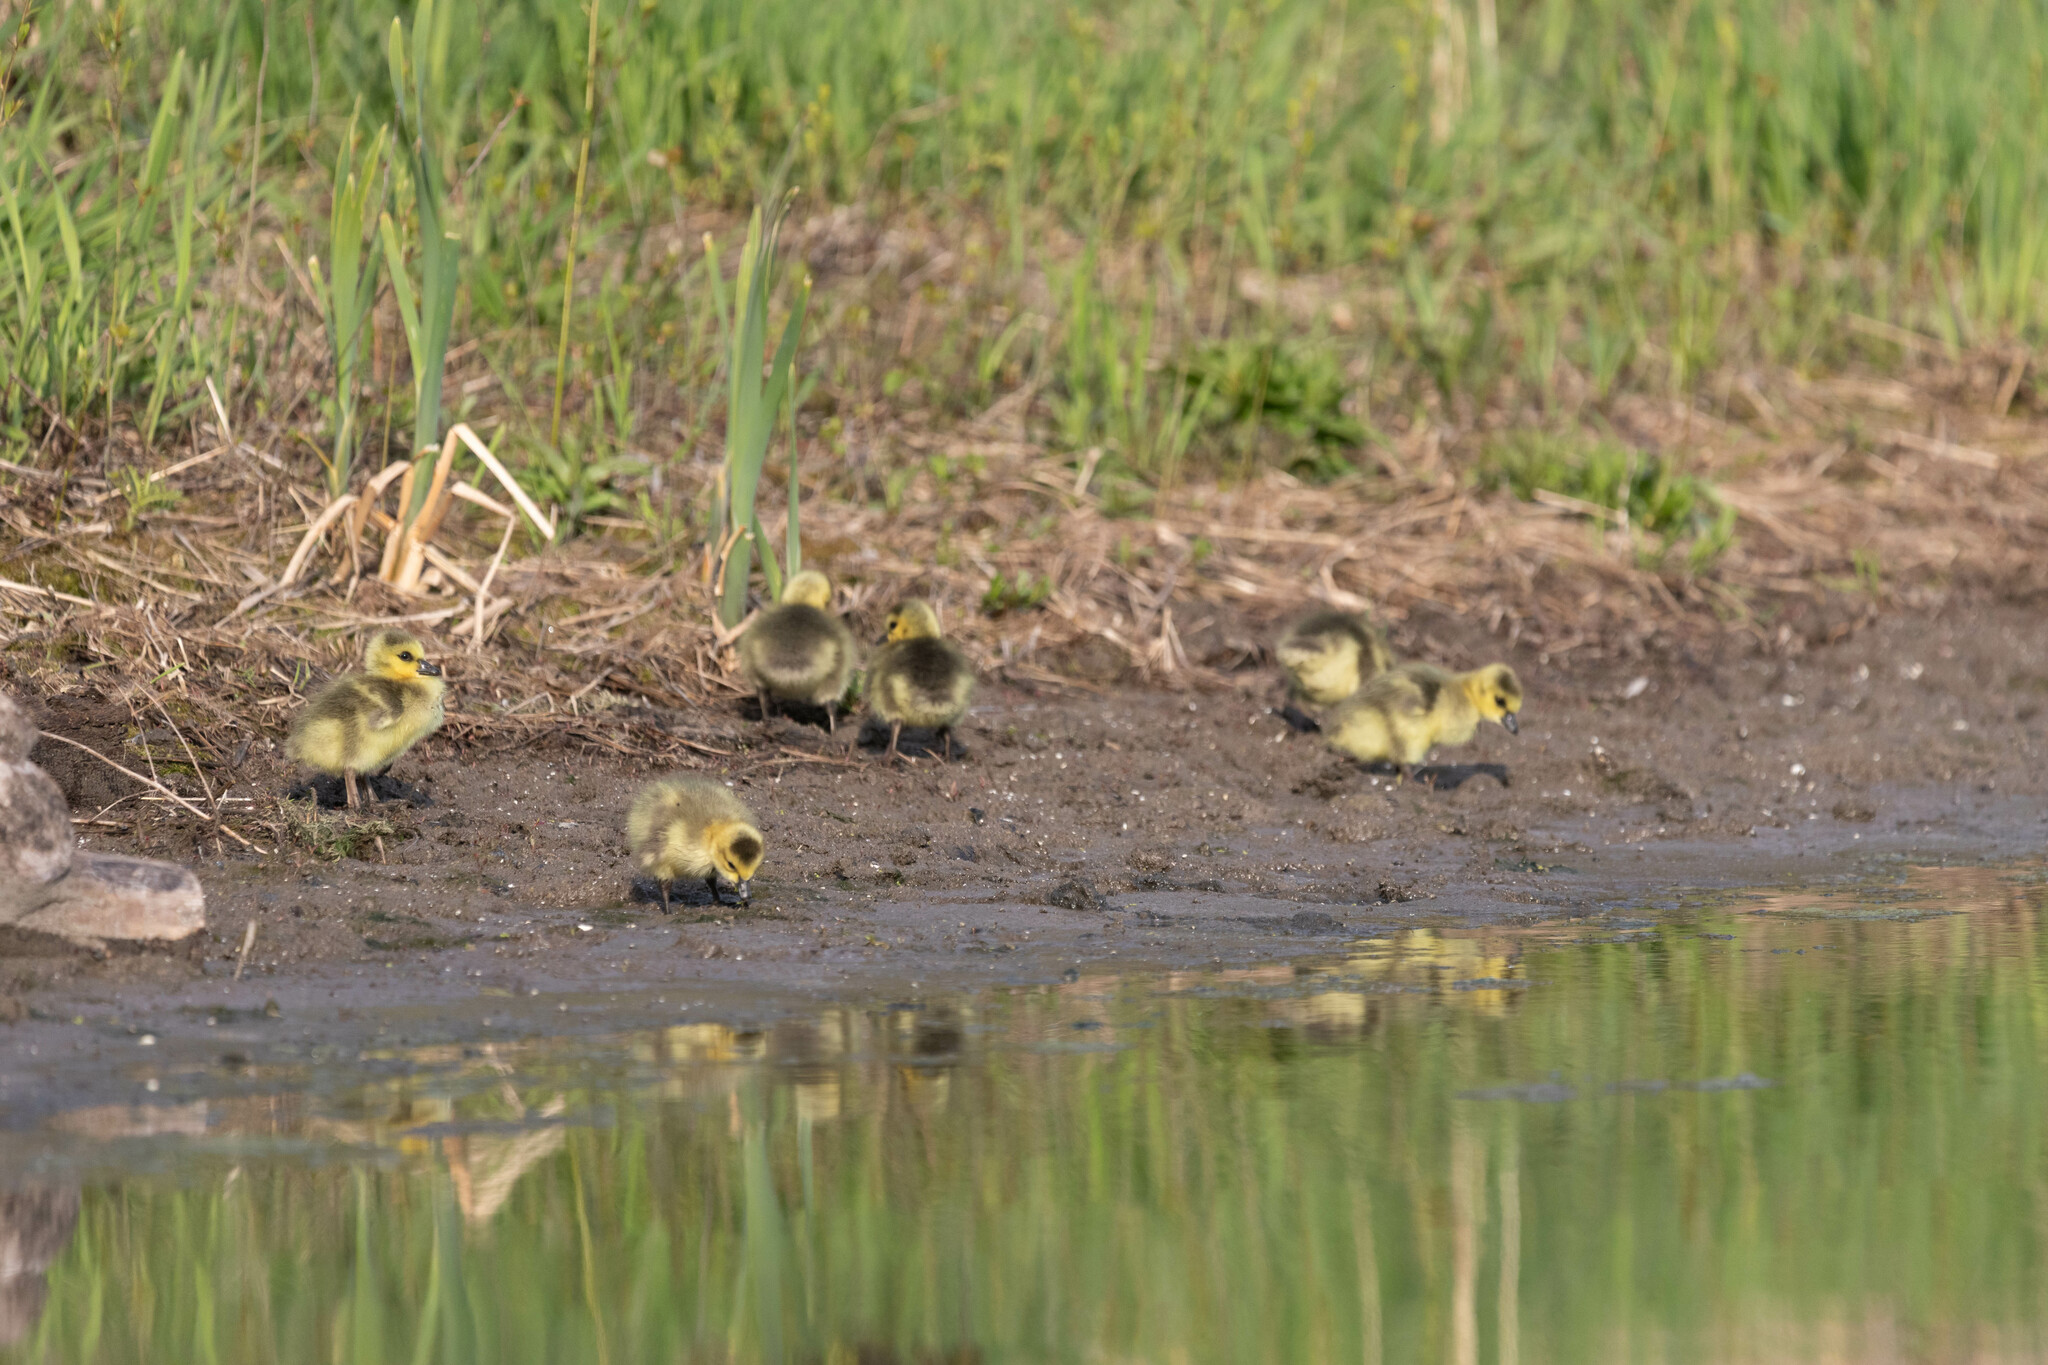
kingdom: Animalia
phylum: Chordata
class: Aves
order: Anseriformes
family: Anatidae
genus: Branta
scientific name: Branta canadensis
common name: Canada goose
